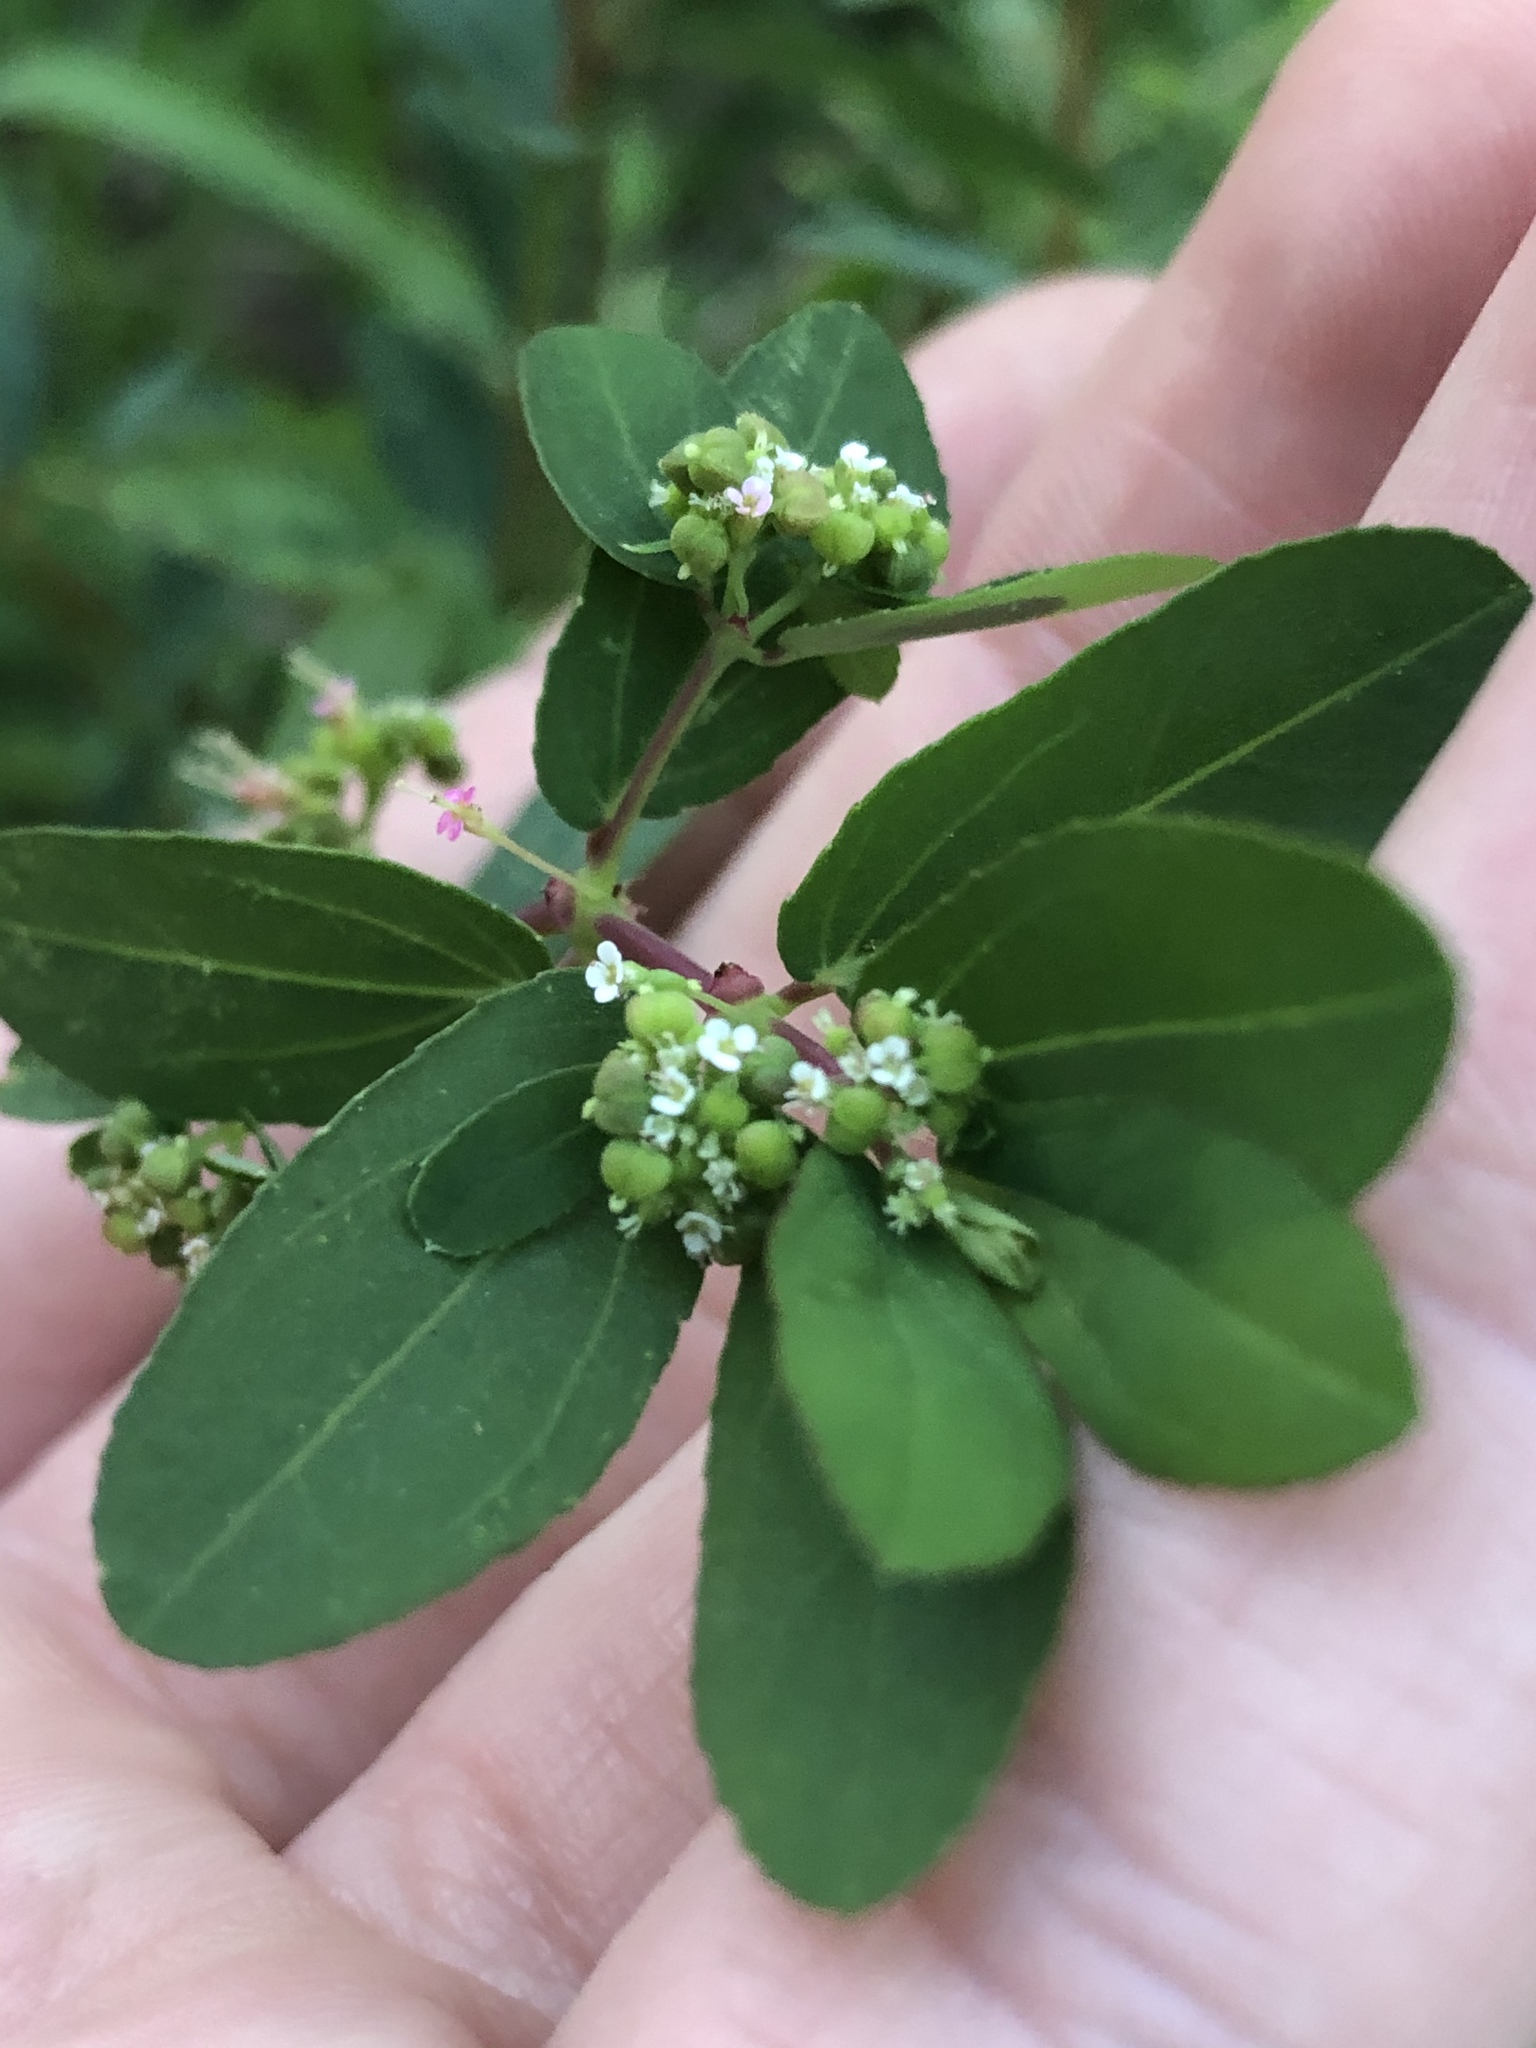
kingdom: Plantae
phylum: Tracheophyta
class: Magnoliopsida
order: Malpighiales
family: Euphorbiaceae
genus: Euphorbia
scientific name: Euphorbia hypericifolia
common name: Graceful sandmat
